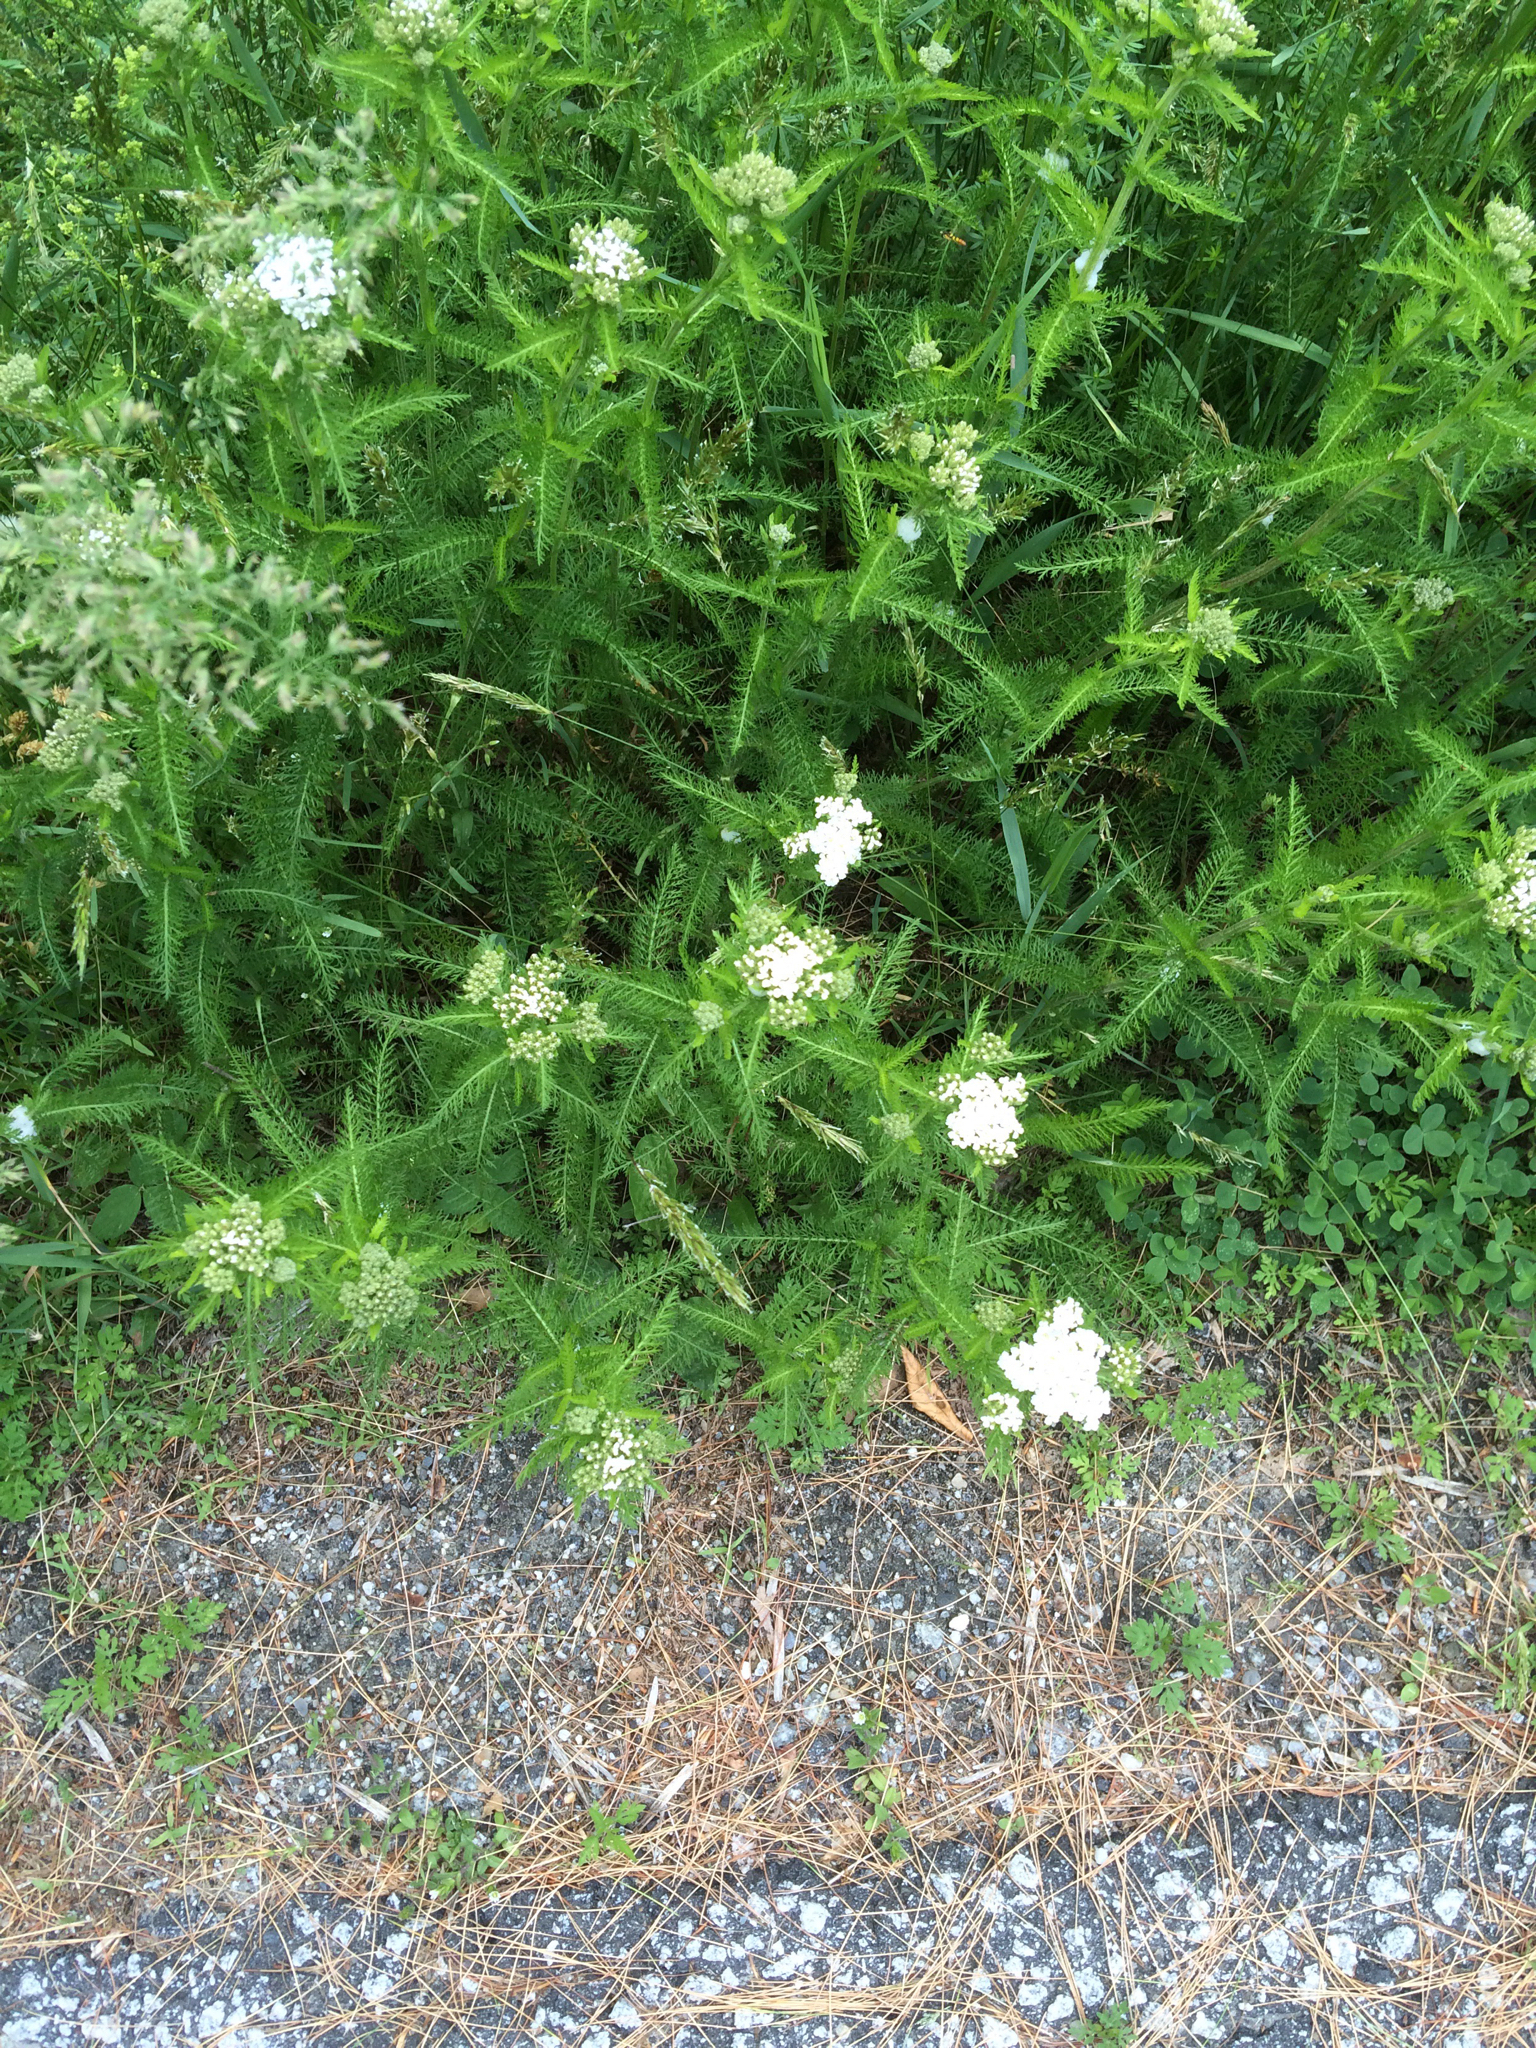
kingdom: Plantae
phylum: Tracheophyta
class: Magnoliopsida
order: Asterales
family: Asteraceae
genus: Achillea
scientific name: Achillea millefolium
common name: Yarrow
